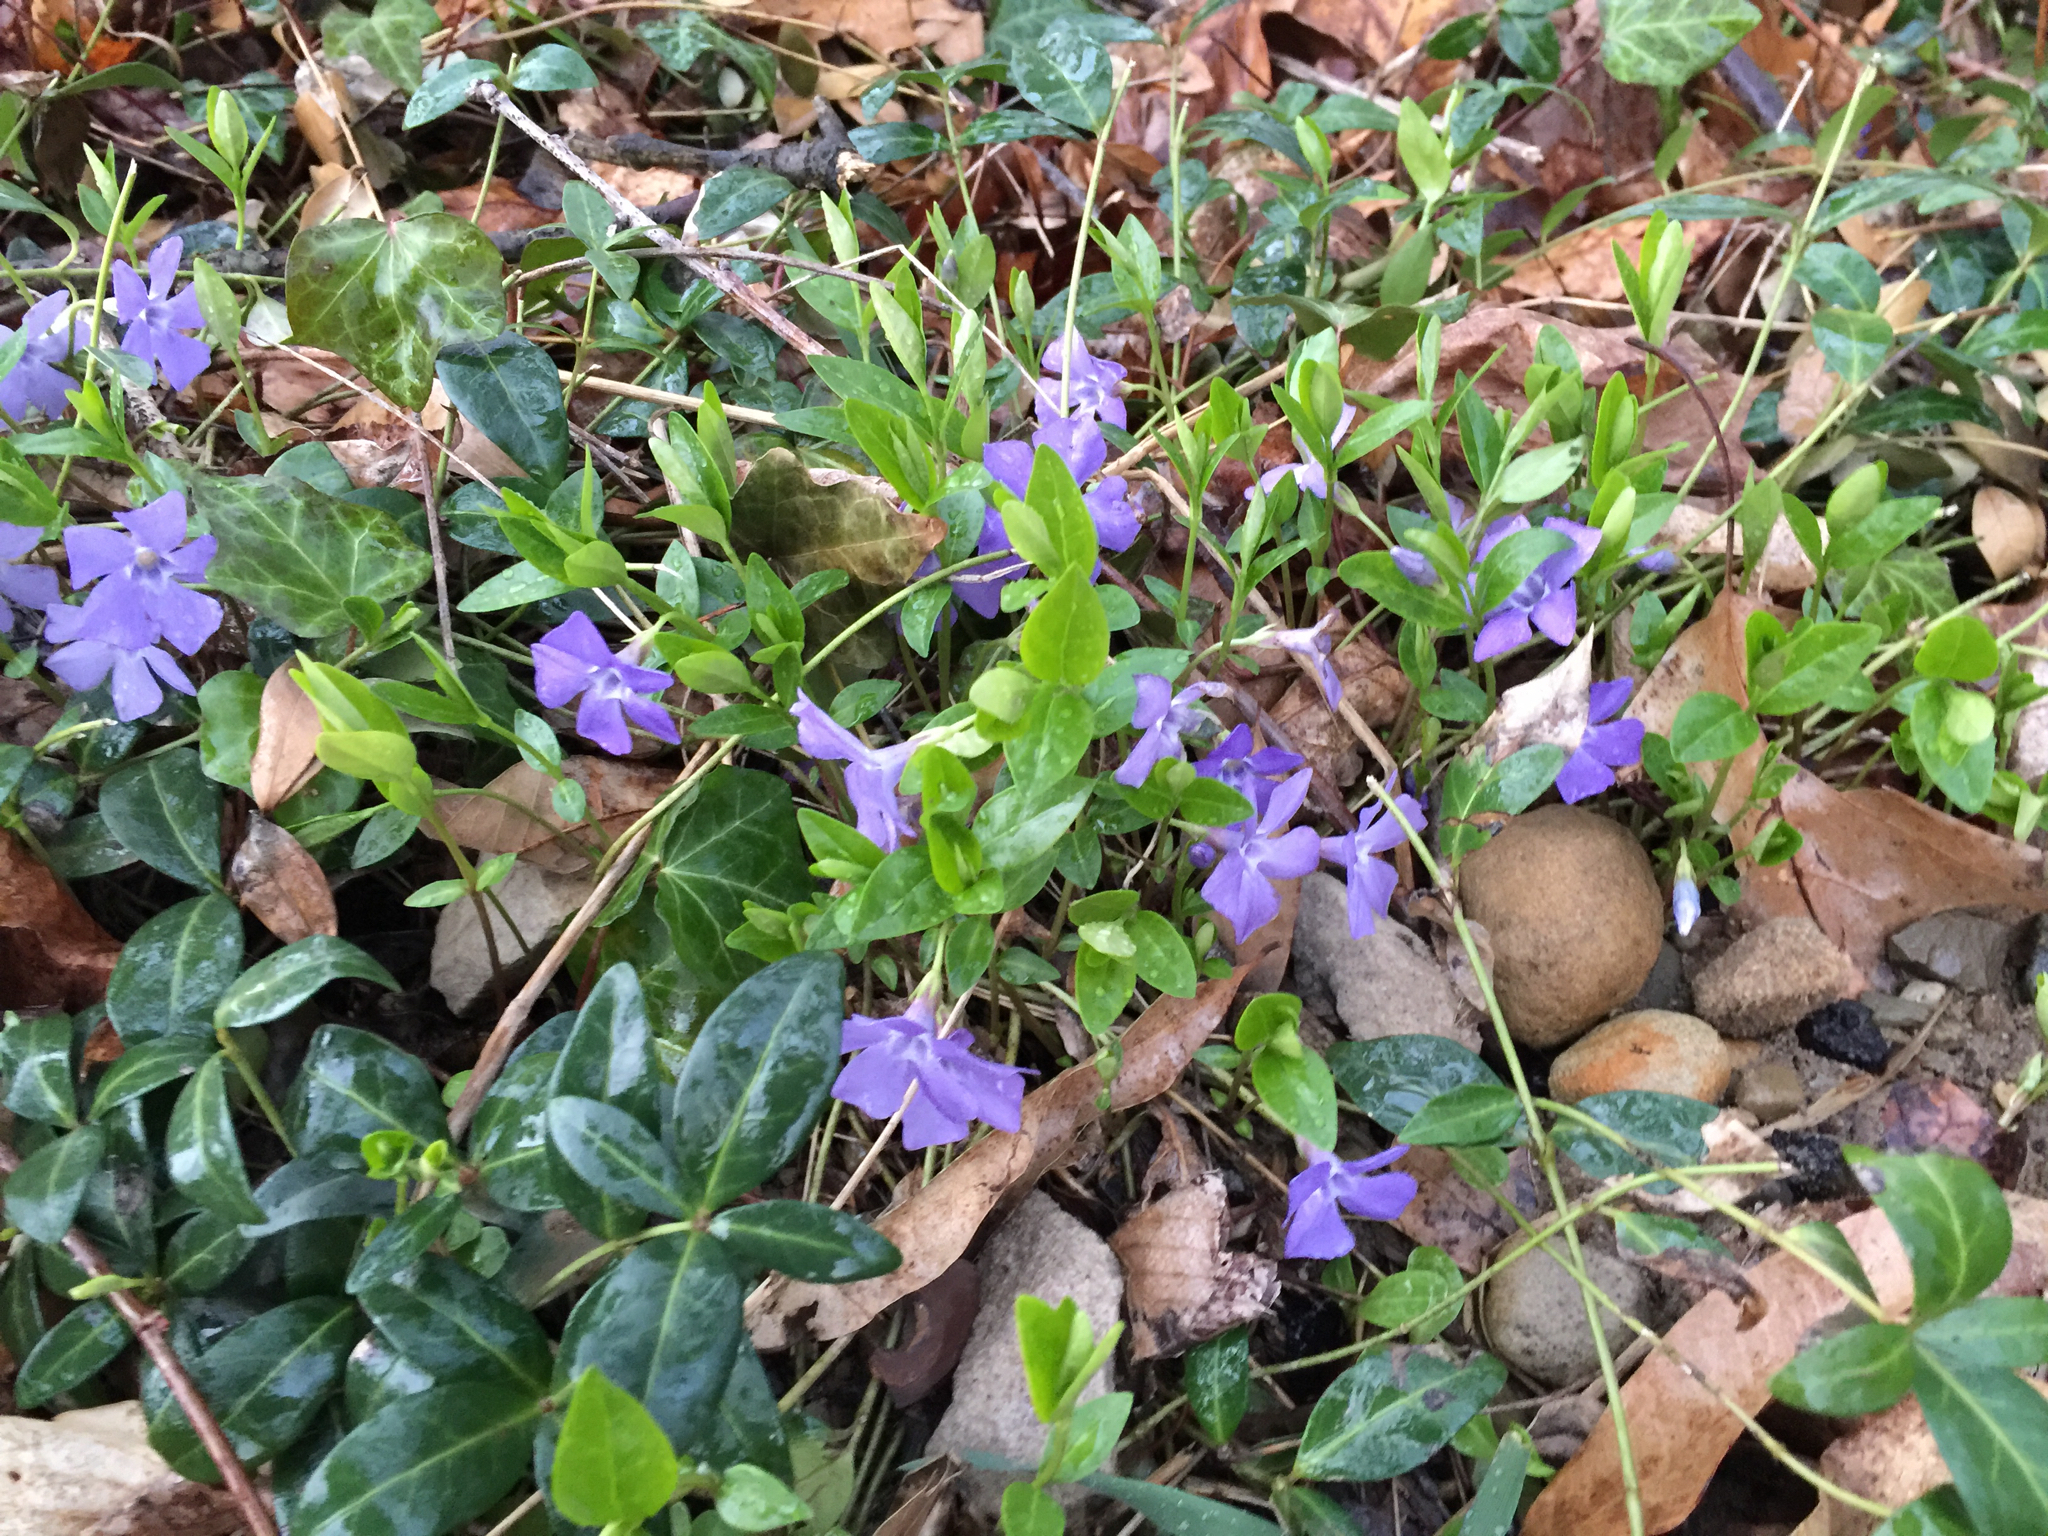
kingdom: Plantae
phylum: Tracheophyta
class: Magnoliopsida
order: Gentianales
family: Apocynaceae
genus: Vinca
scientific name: Vinca minor
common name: Lesser periwinkle
